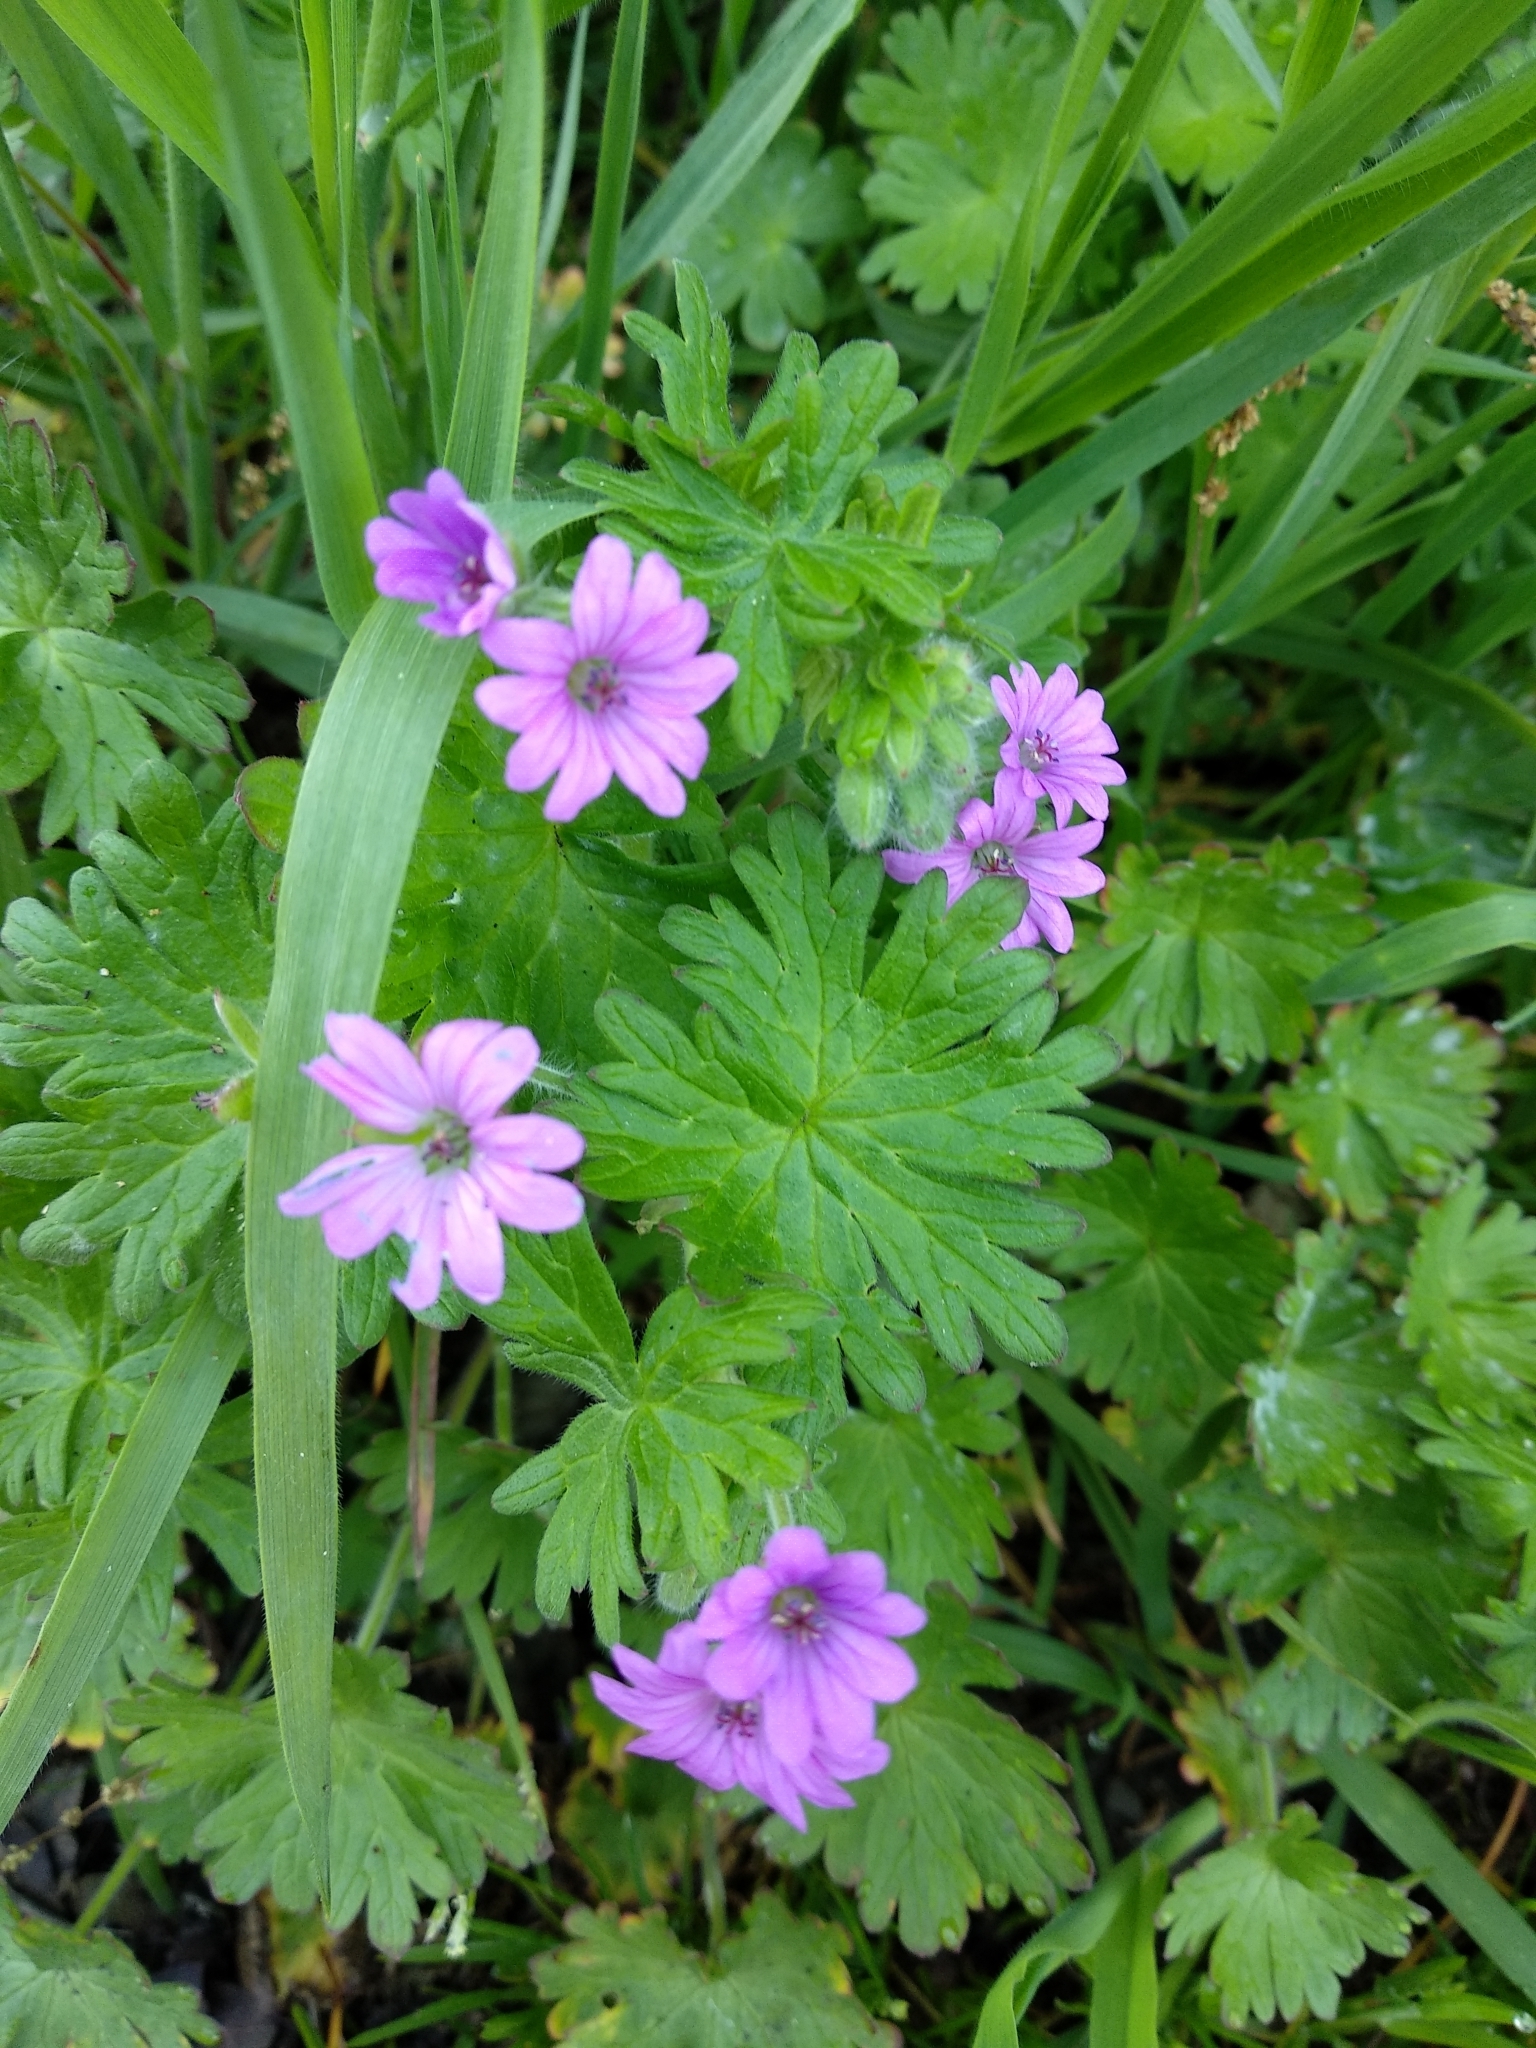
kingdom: Plantae
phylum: Tracheophyta
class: Magnoliopsida
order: Geraniales
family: Geraniaceae
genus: Geranium
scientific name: Geranium molle
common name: Dove's-foot crane's-bill
